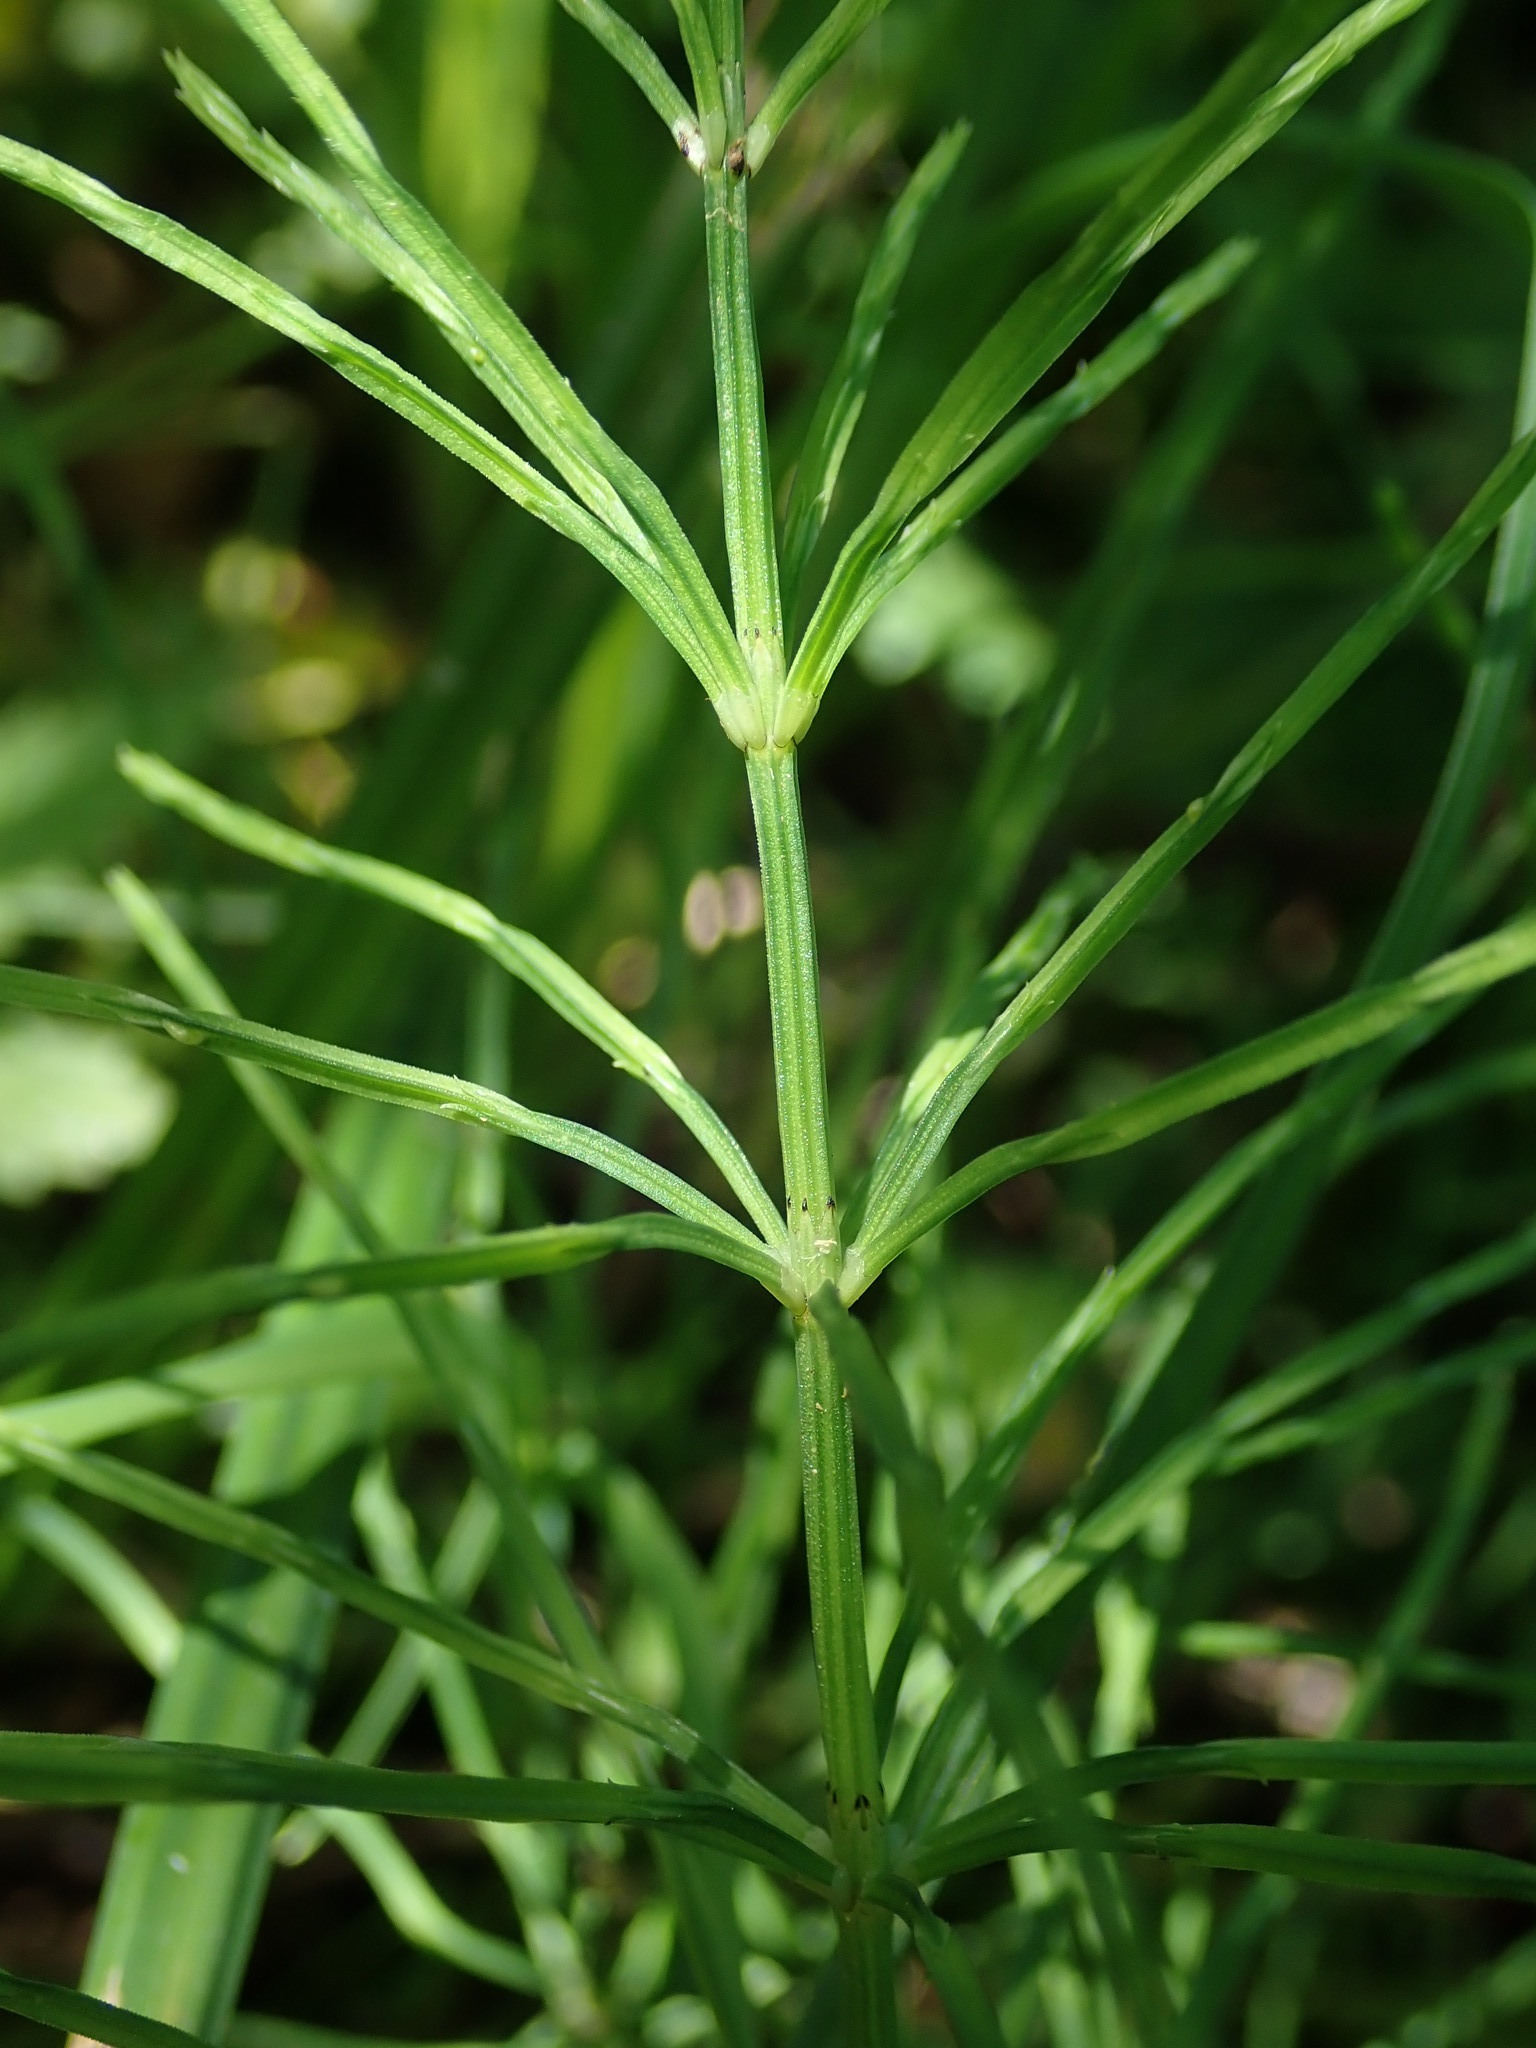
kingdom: Plantae
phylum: Tracheophyta
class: Polypodiopsida
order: Equisetales
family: Equisetaceae
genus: Equisetum
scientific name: Equisetum arvense
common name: Field horsetail
